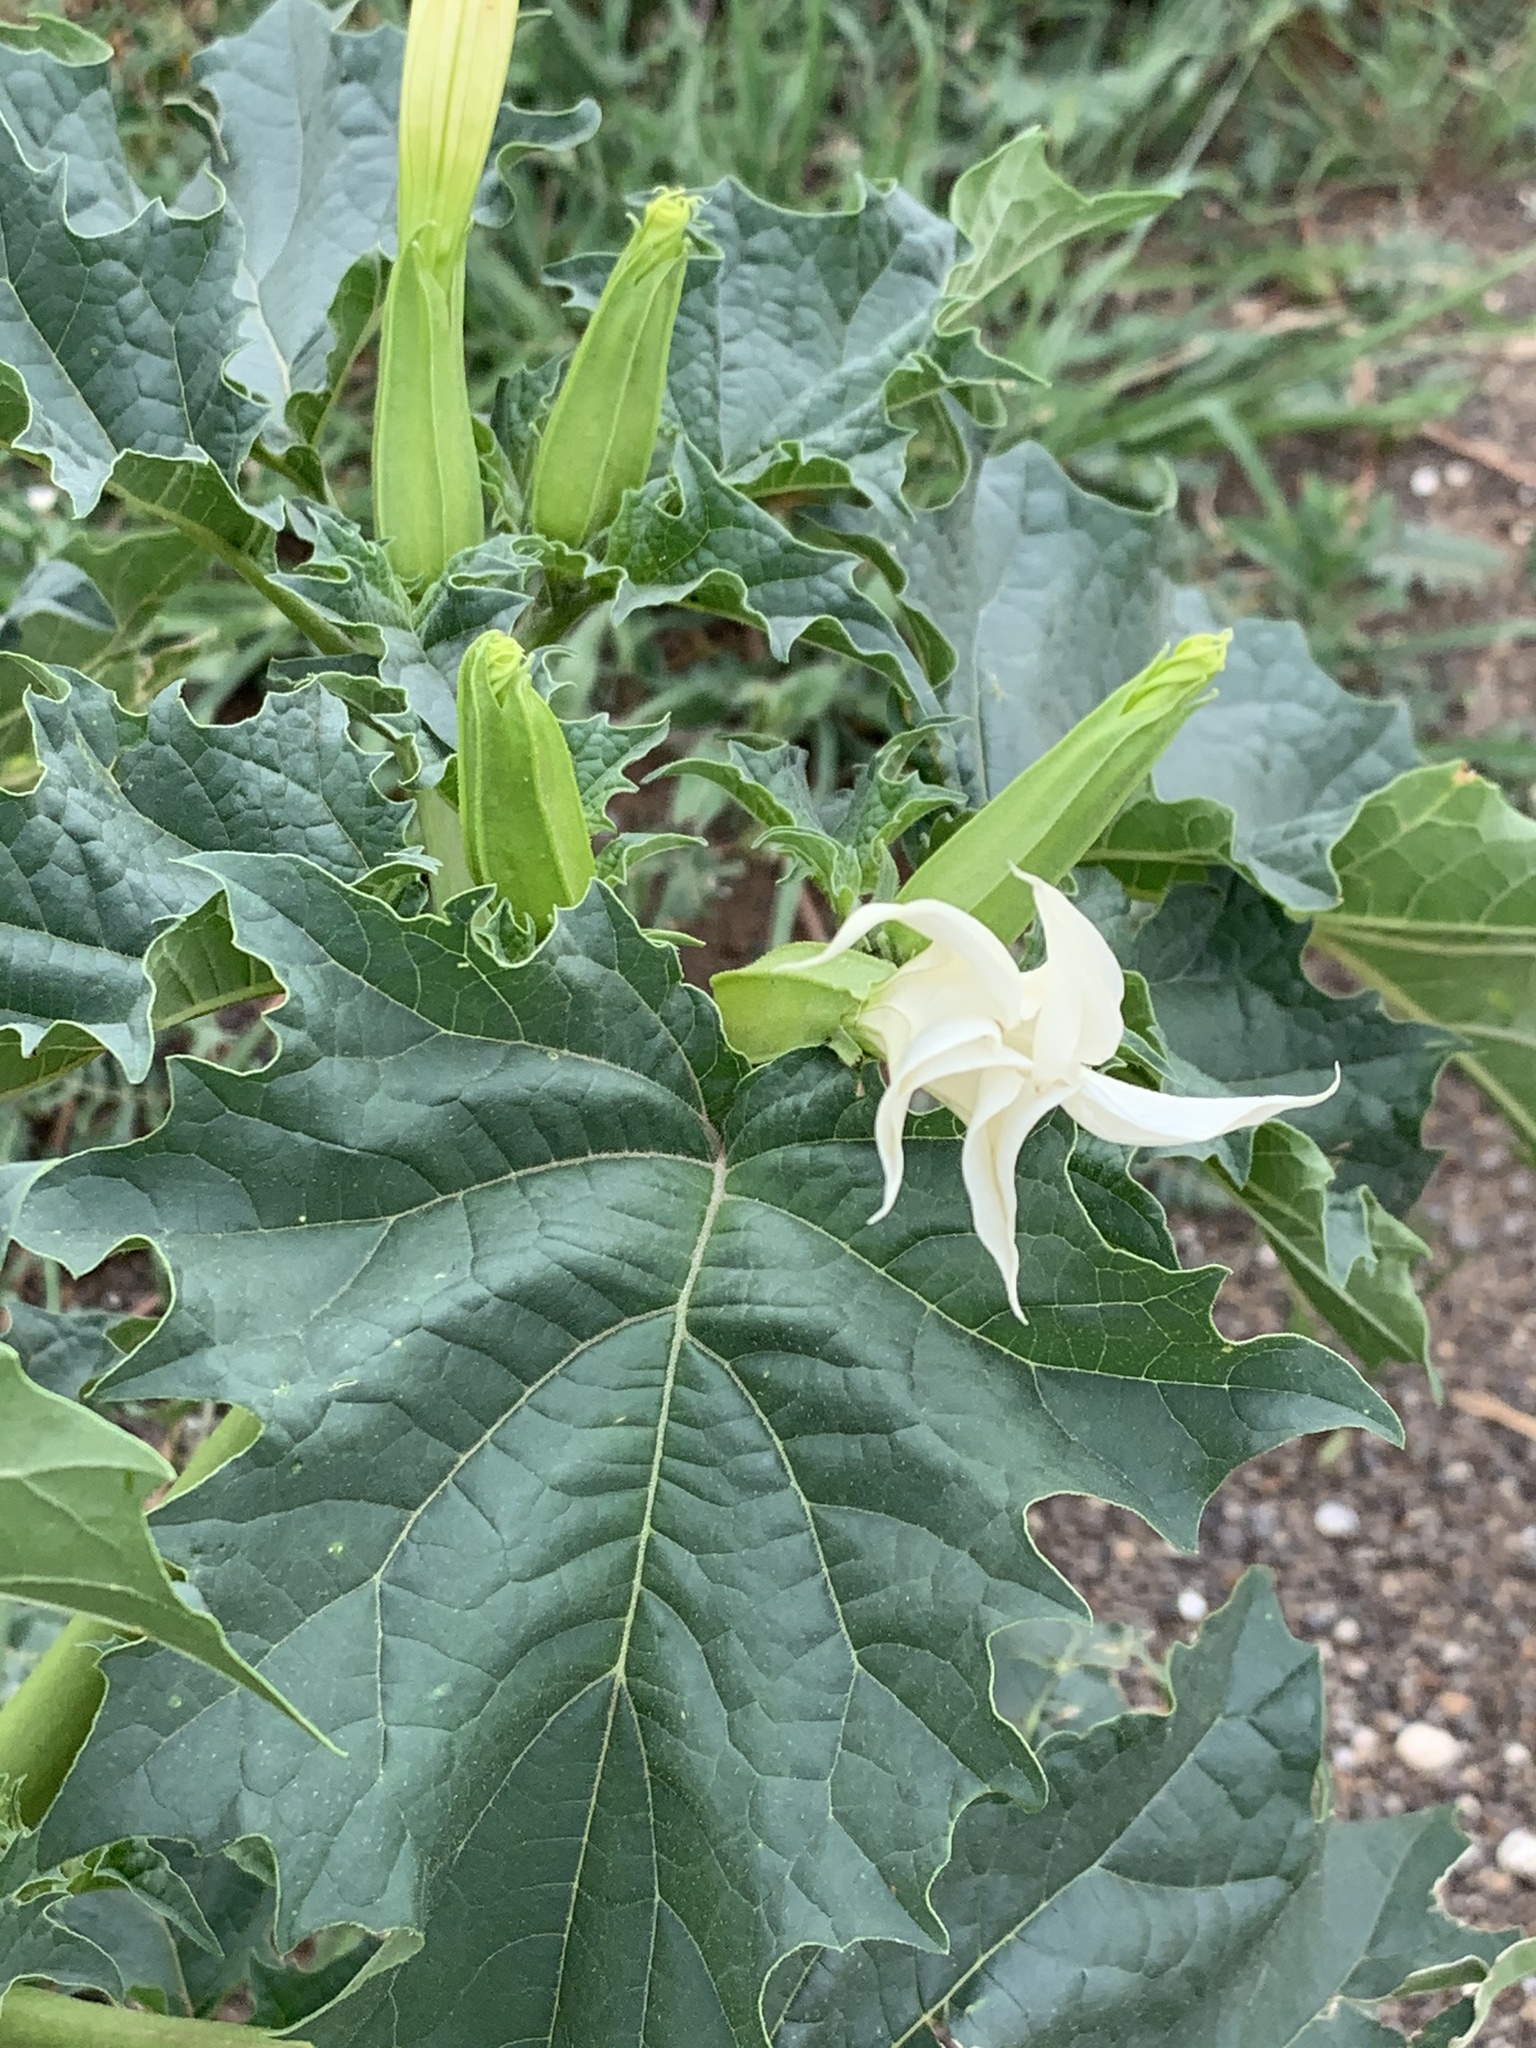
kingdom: Plantae
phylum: Tracheophyta
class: Magnoliopsida
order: Solanales
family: Solanaceae
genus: Datura
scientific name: Datura stramonium
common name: Thorn-apple
